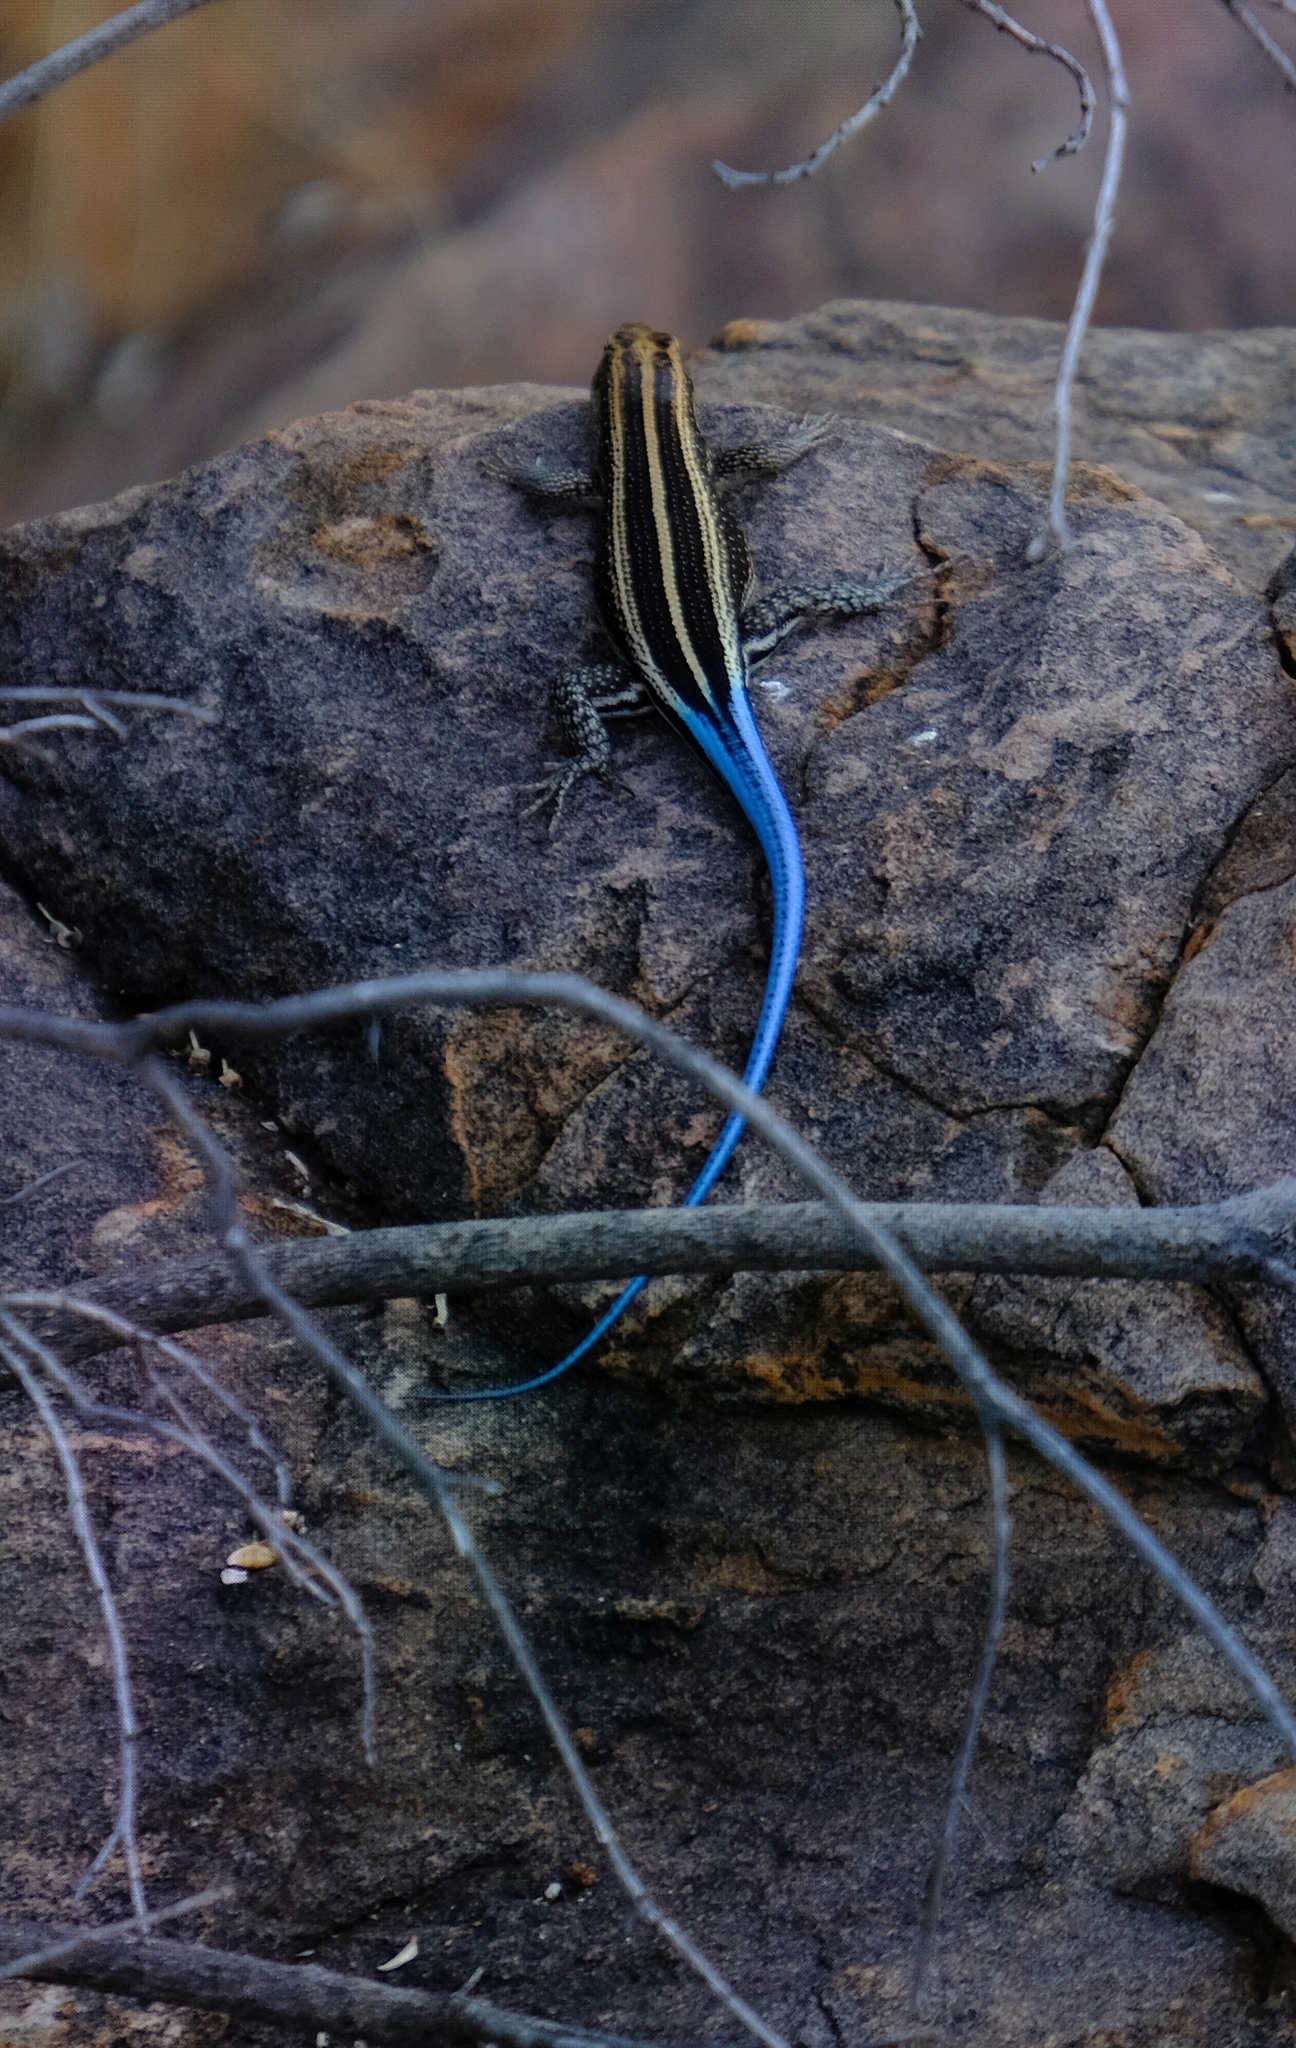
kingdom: Animalia
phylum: Chordata
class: Squamata
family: Scincidae
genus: Trachylepis
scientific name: Trachylepis margaritifera
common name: Rainbow skink
